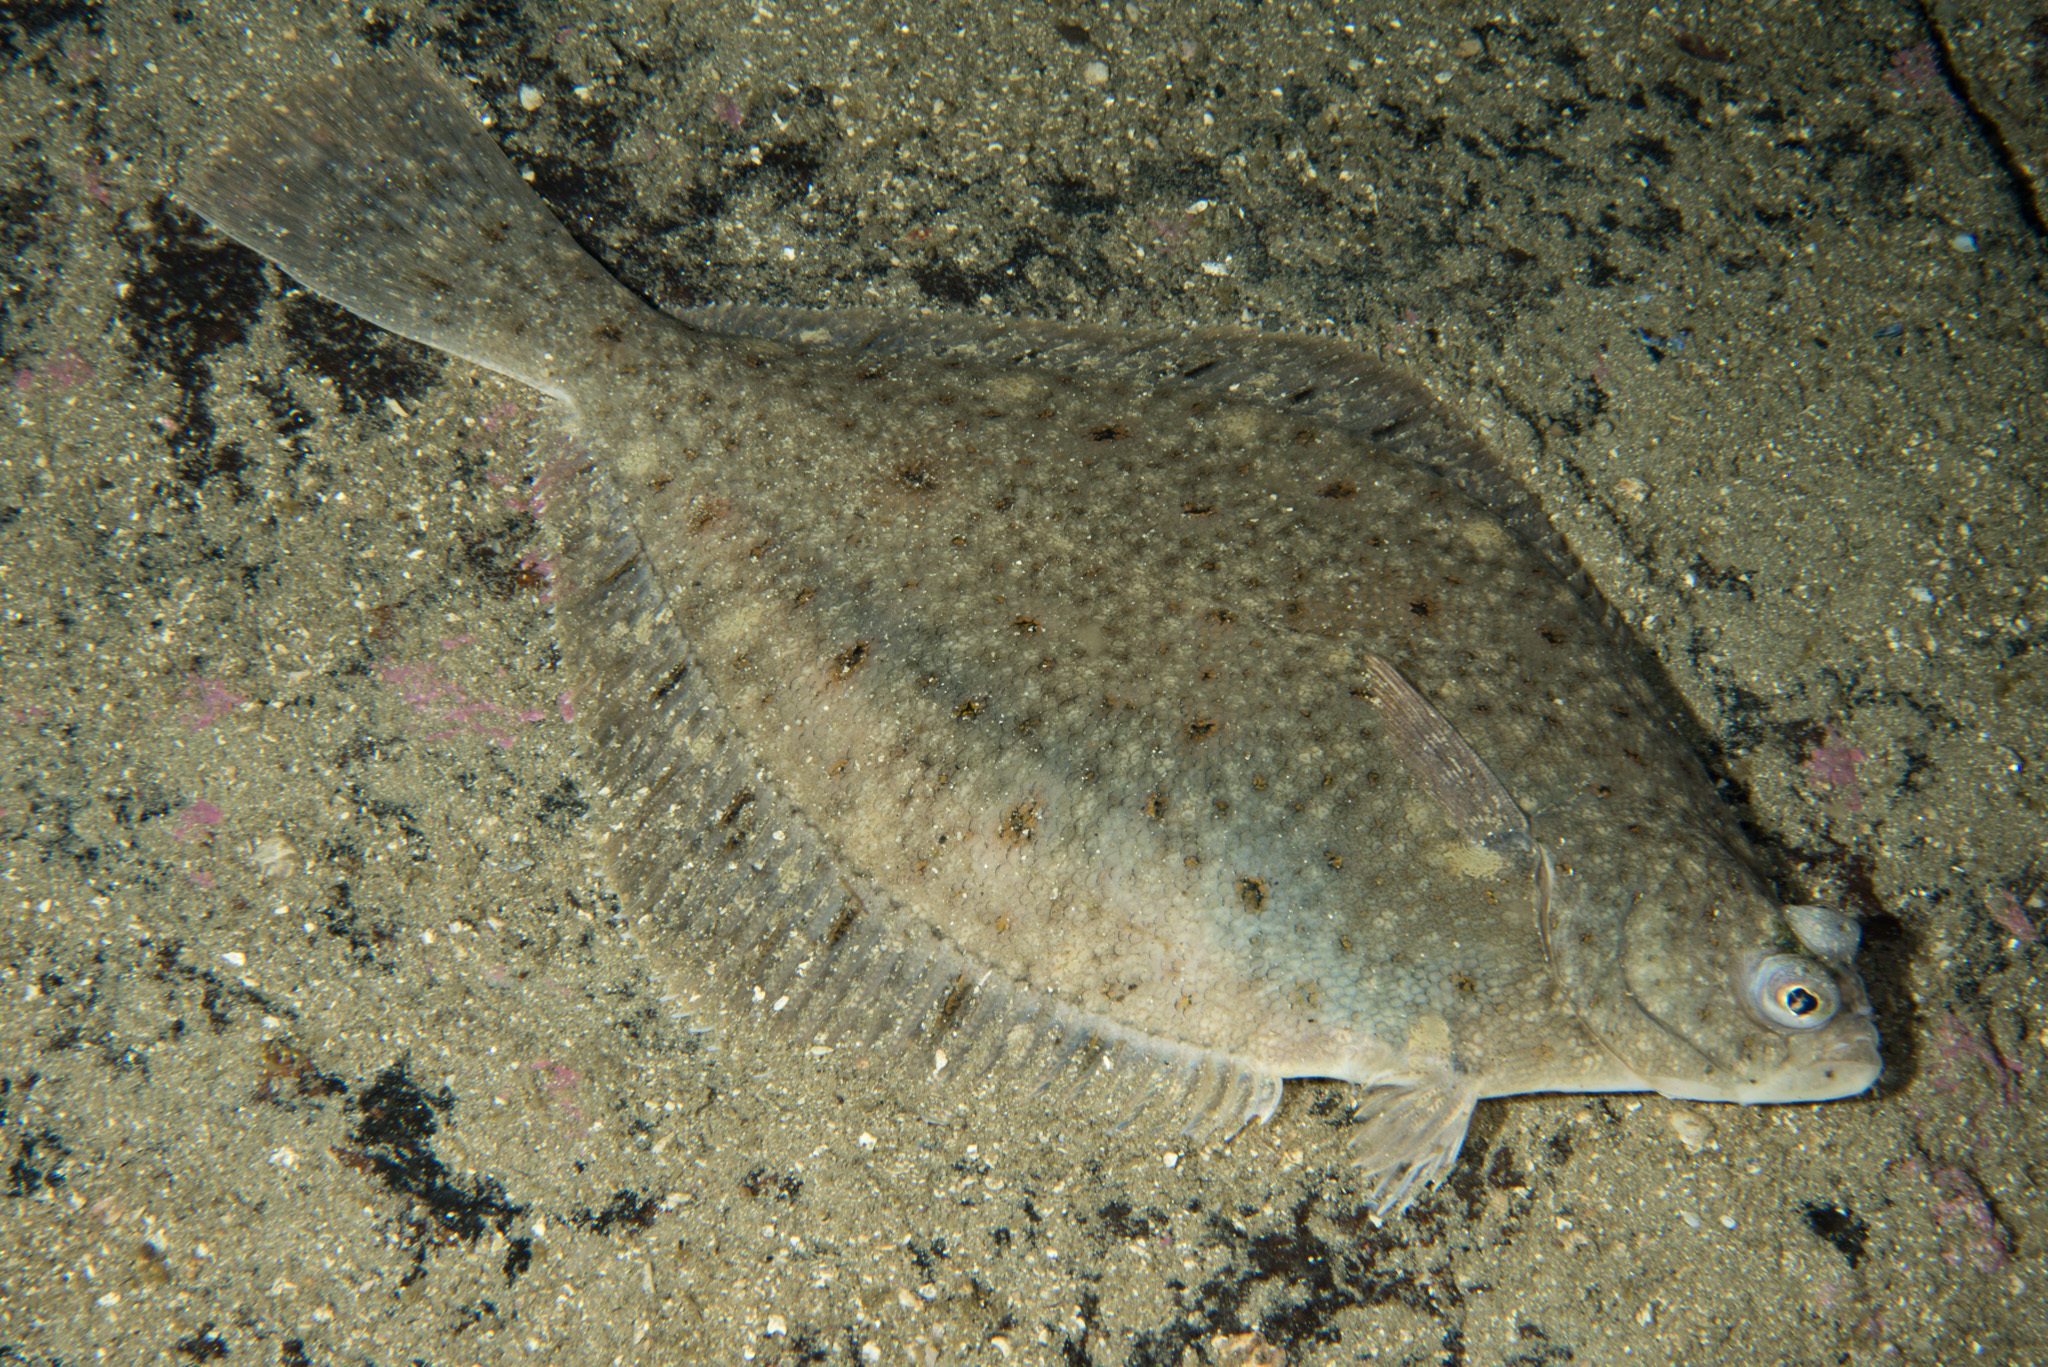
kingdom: Animalia
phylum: Chordata
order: Pleuronectiformes
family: Pleuronectidae
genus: Limanda
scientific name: Limanda limanda
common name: Dab
